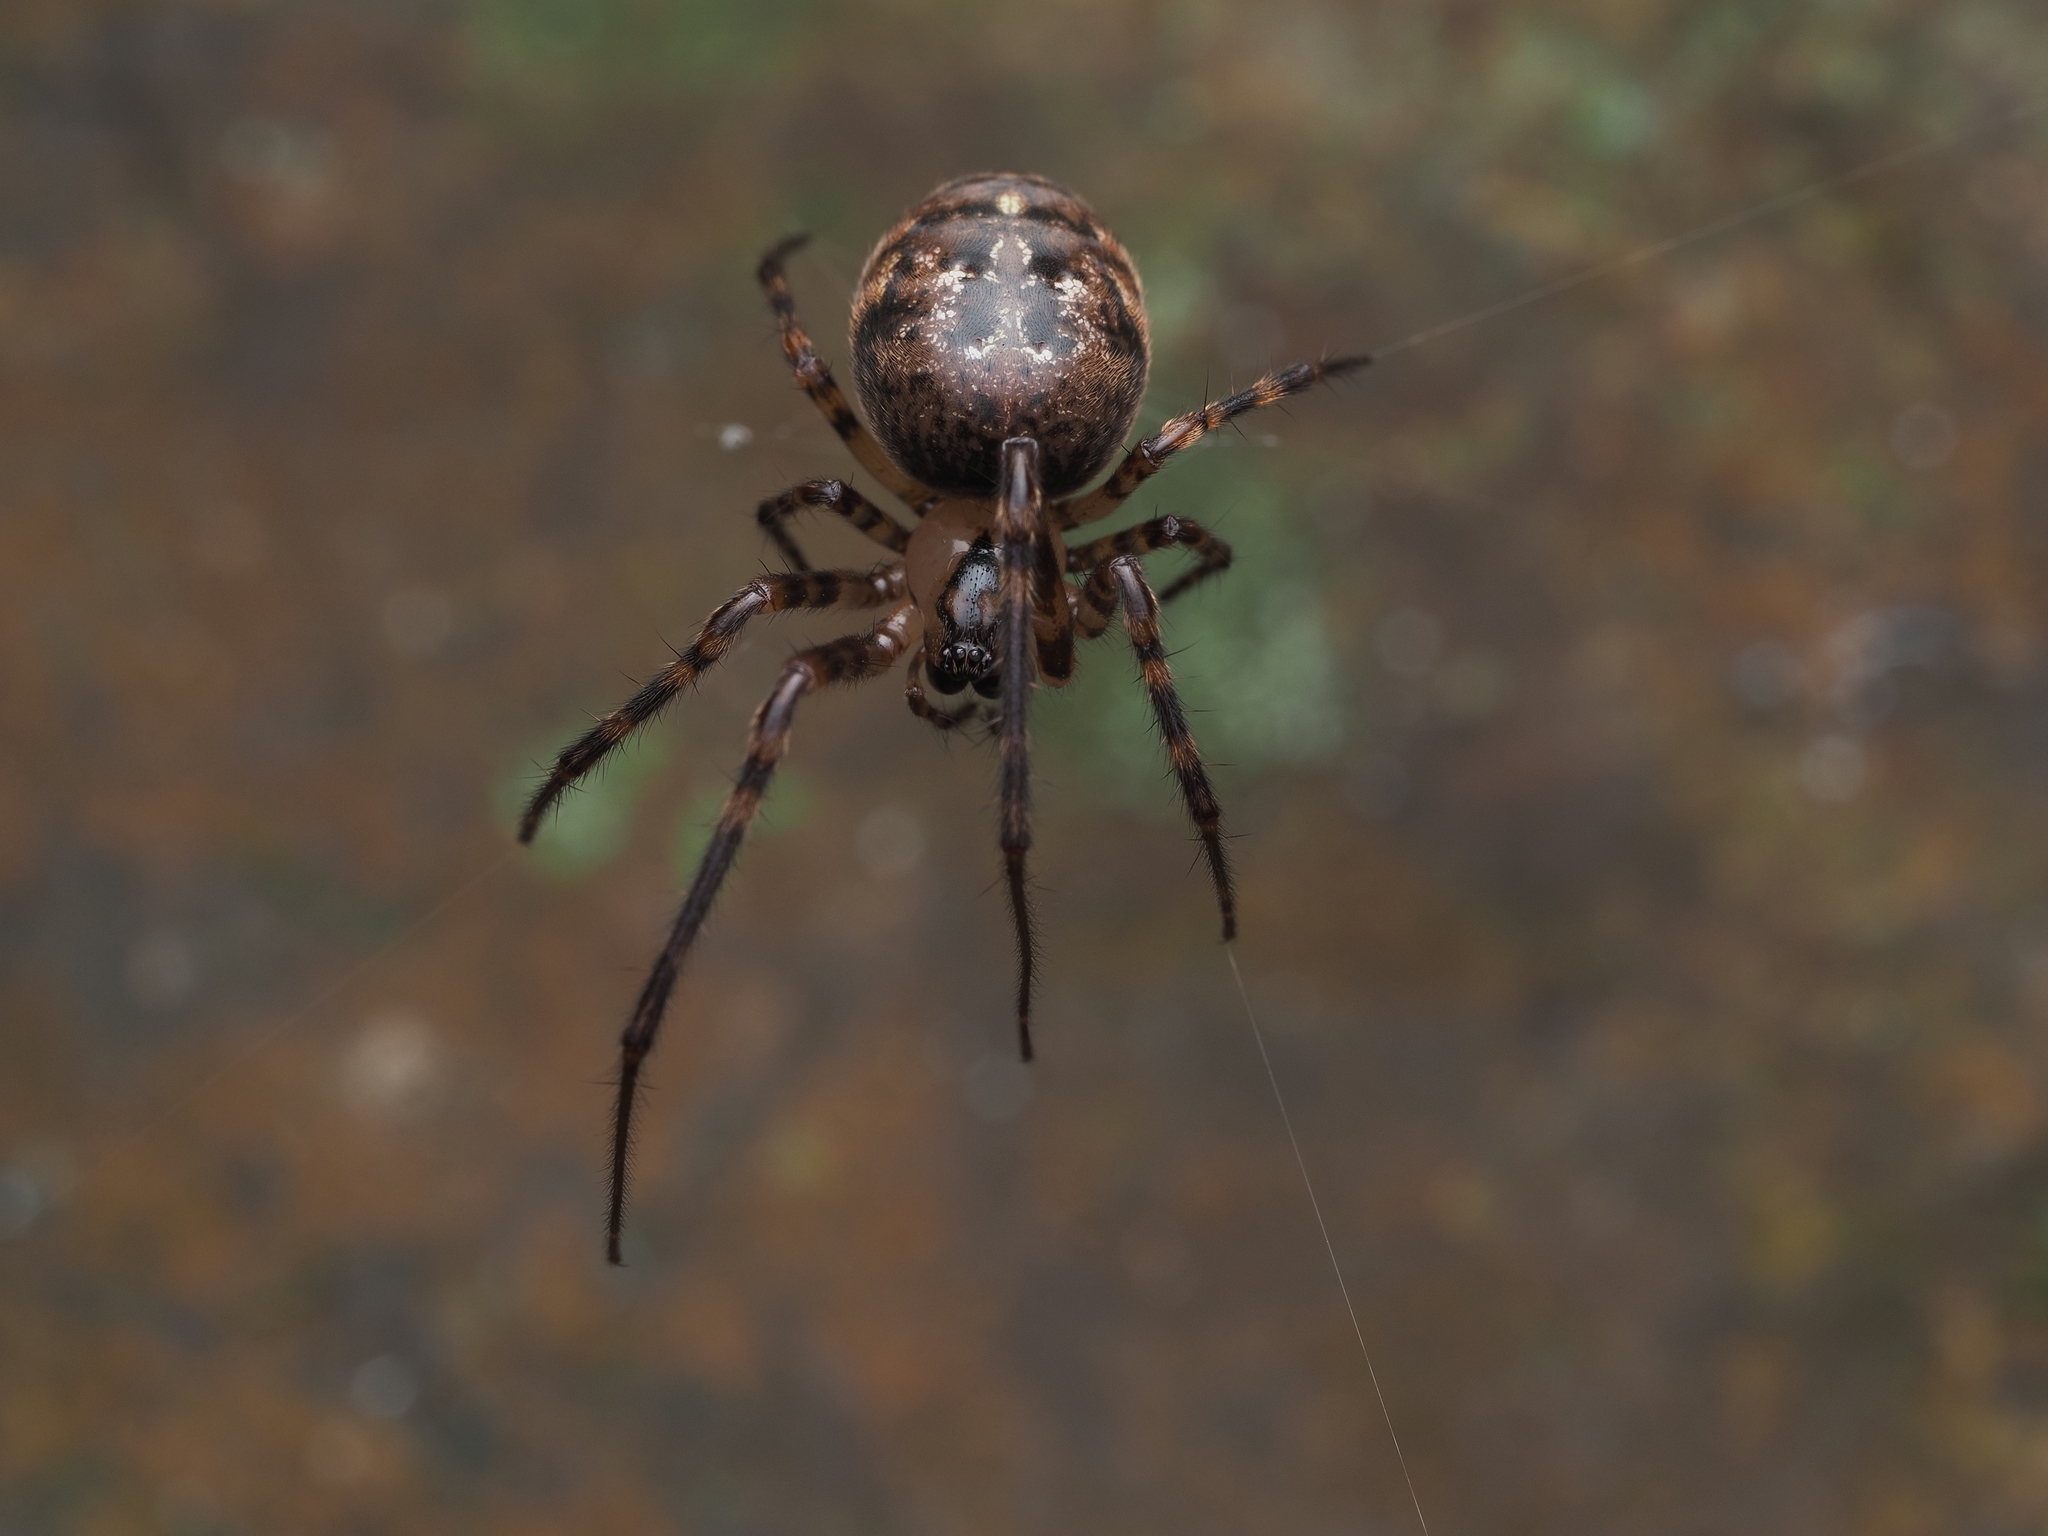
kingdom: Animalia
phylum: Arthropoda
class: Arachnida
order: Araneae
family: Tetragnathidae
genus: Tawhai
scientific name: Tawhai arborea
